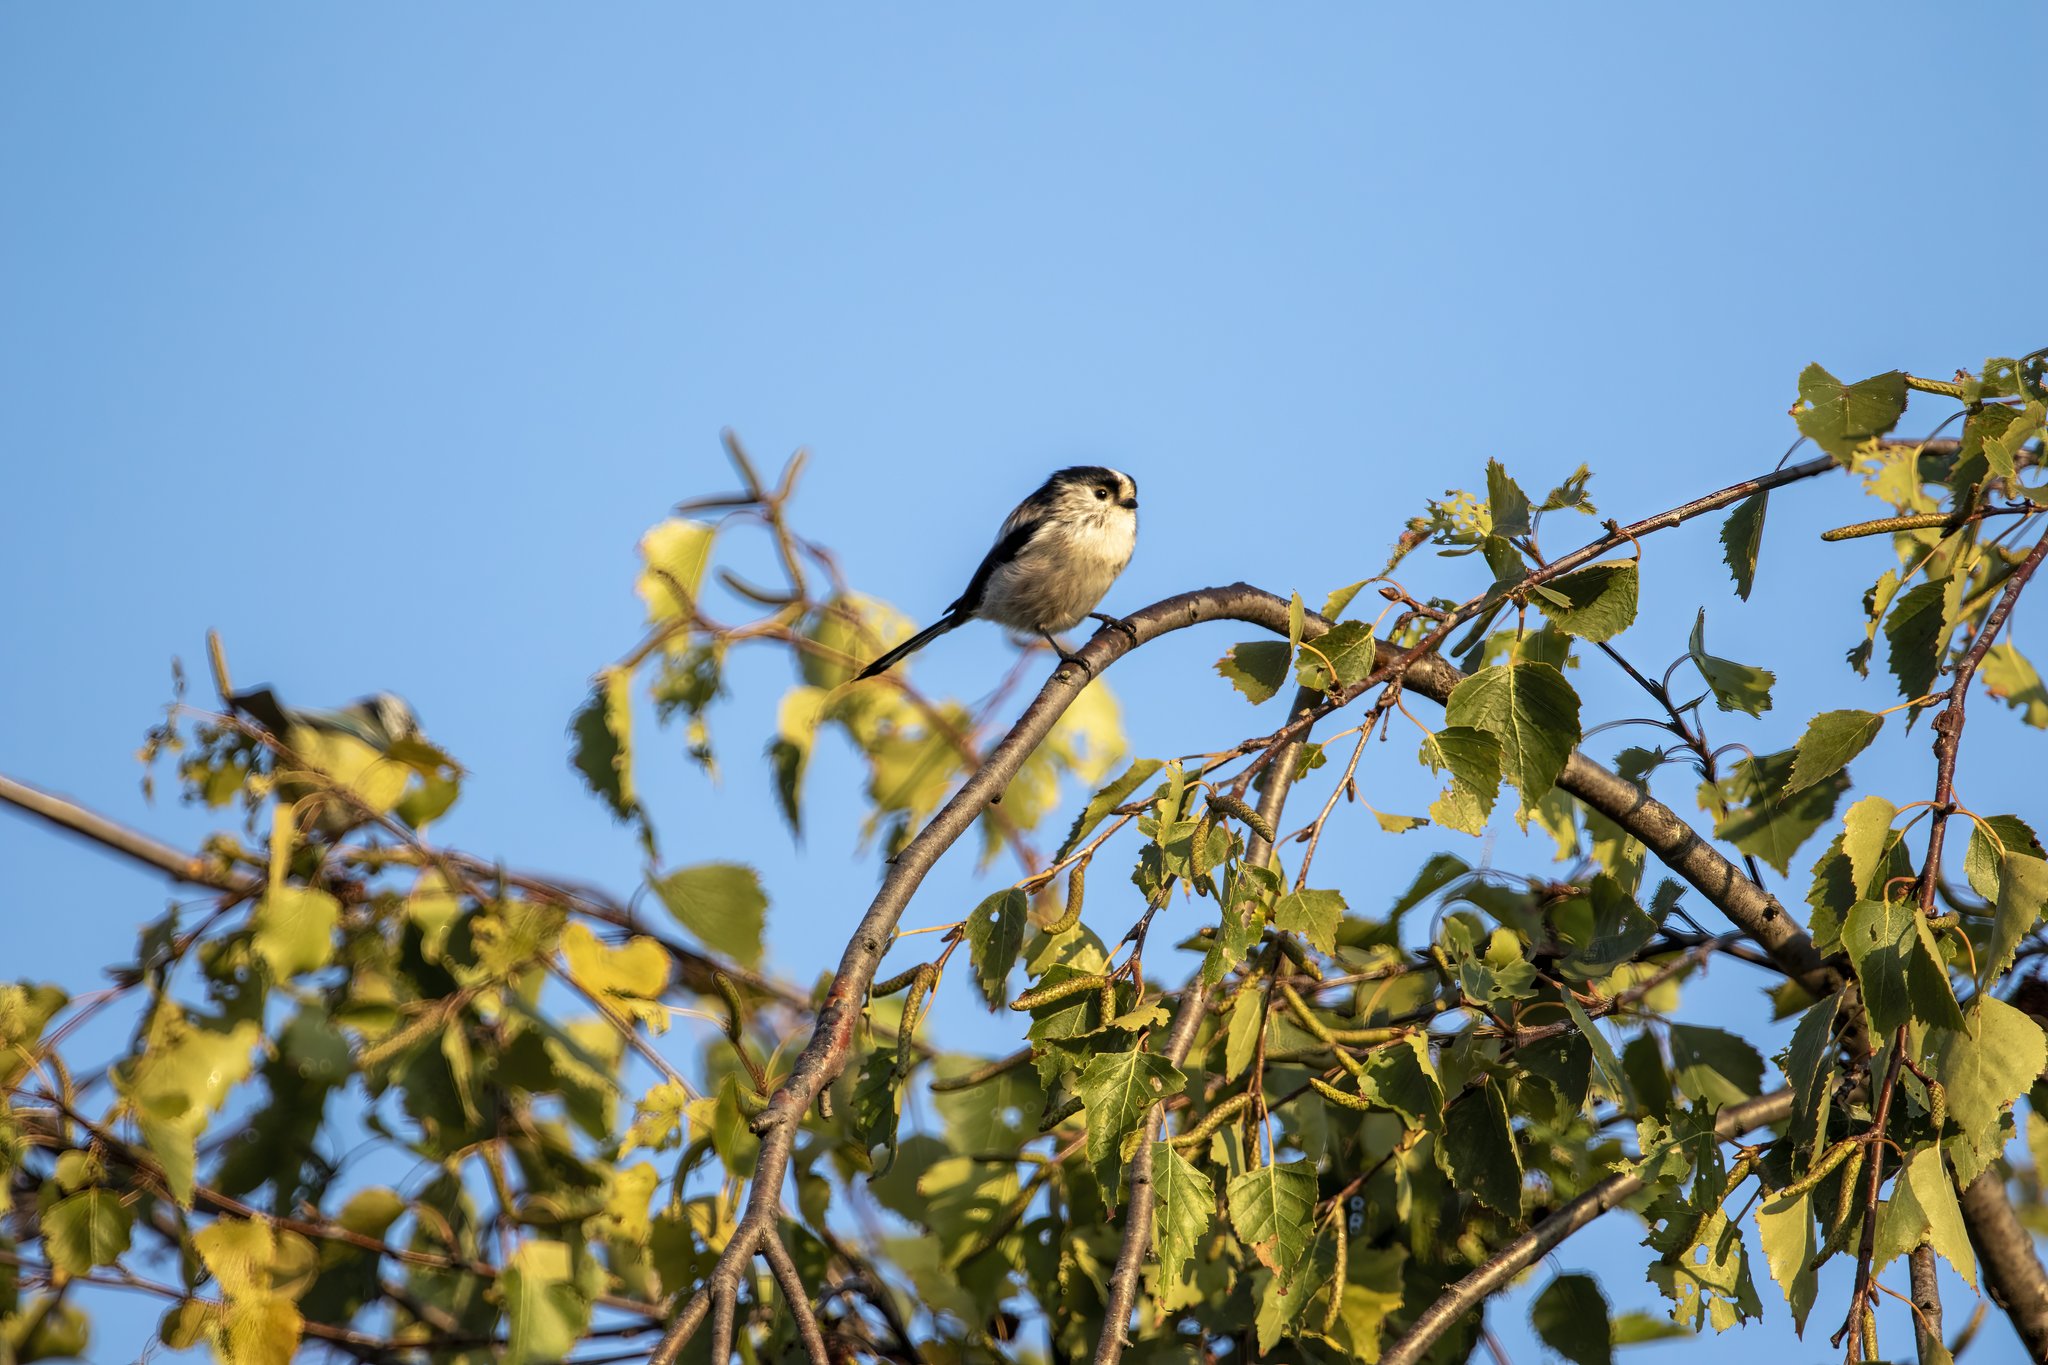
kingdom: Animalia
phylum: Chordata
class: Aves
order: Passeriformes
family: Aegithalidae
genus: Aegithalos
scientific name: Aegithalos caudatus
